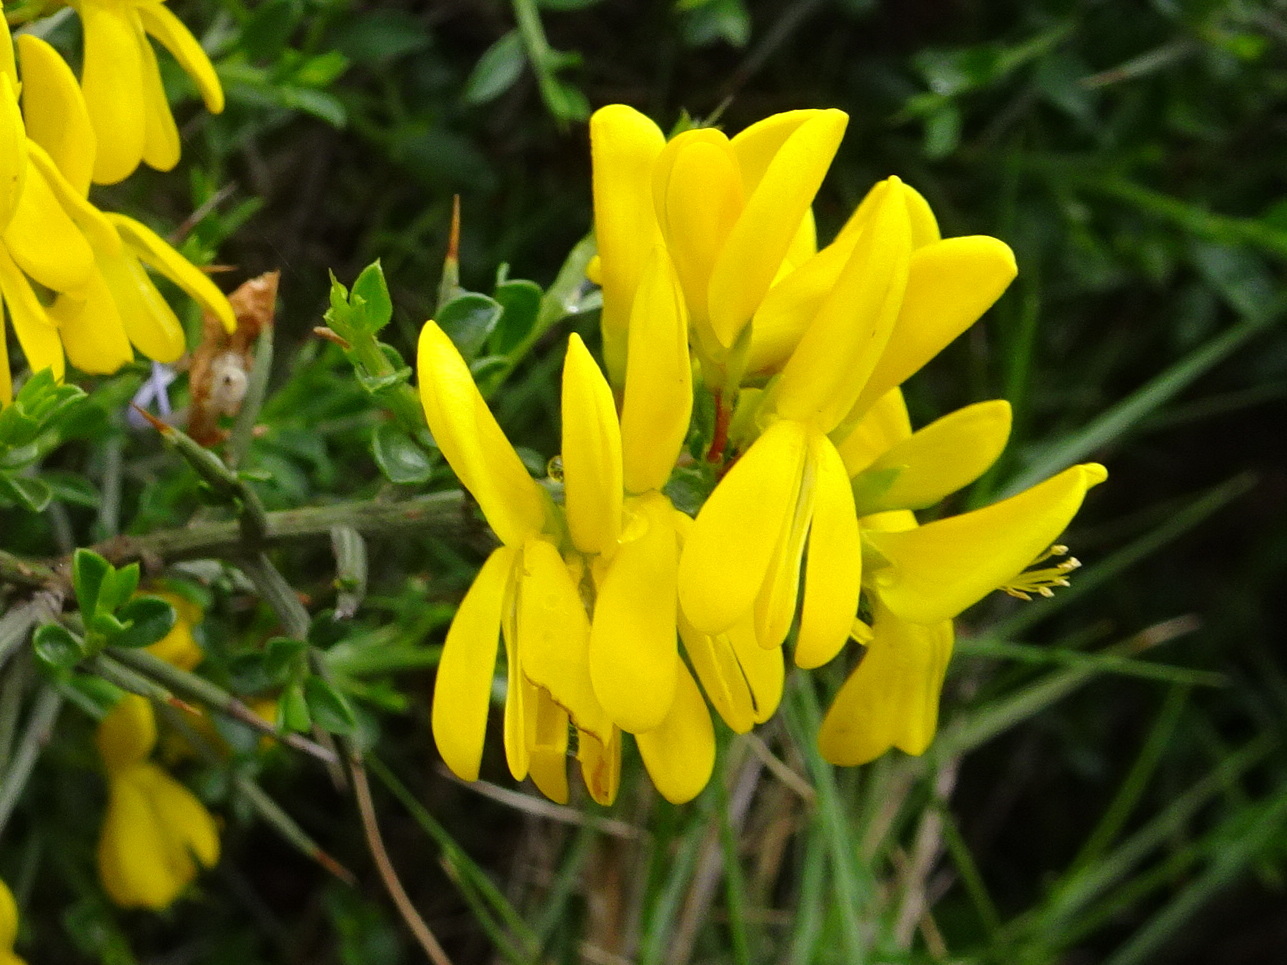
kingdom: Plantae
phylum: Tracheophyta
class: Magnoliopsida
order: Fabales
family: Fabaceae
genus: Genista
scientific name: Genista scorpius
